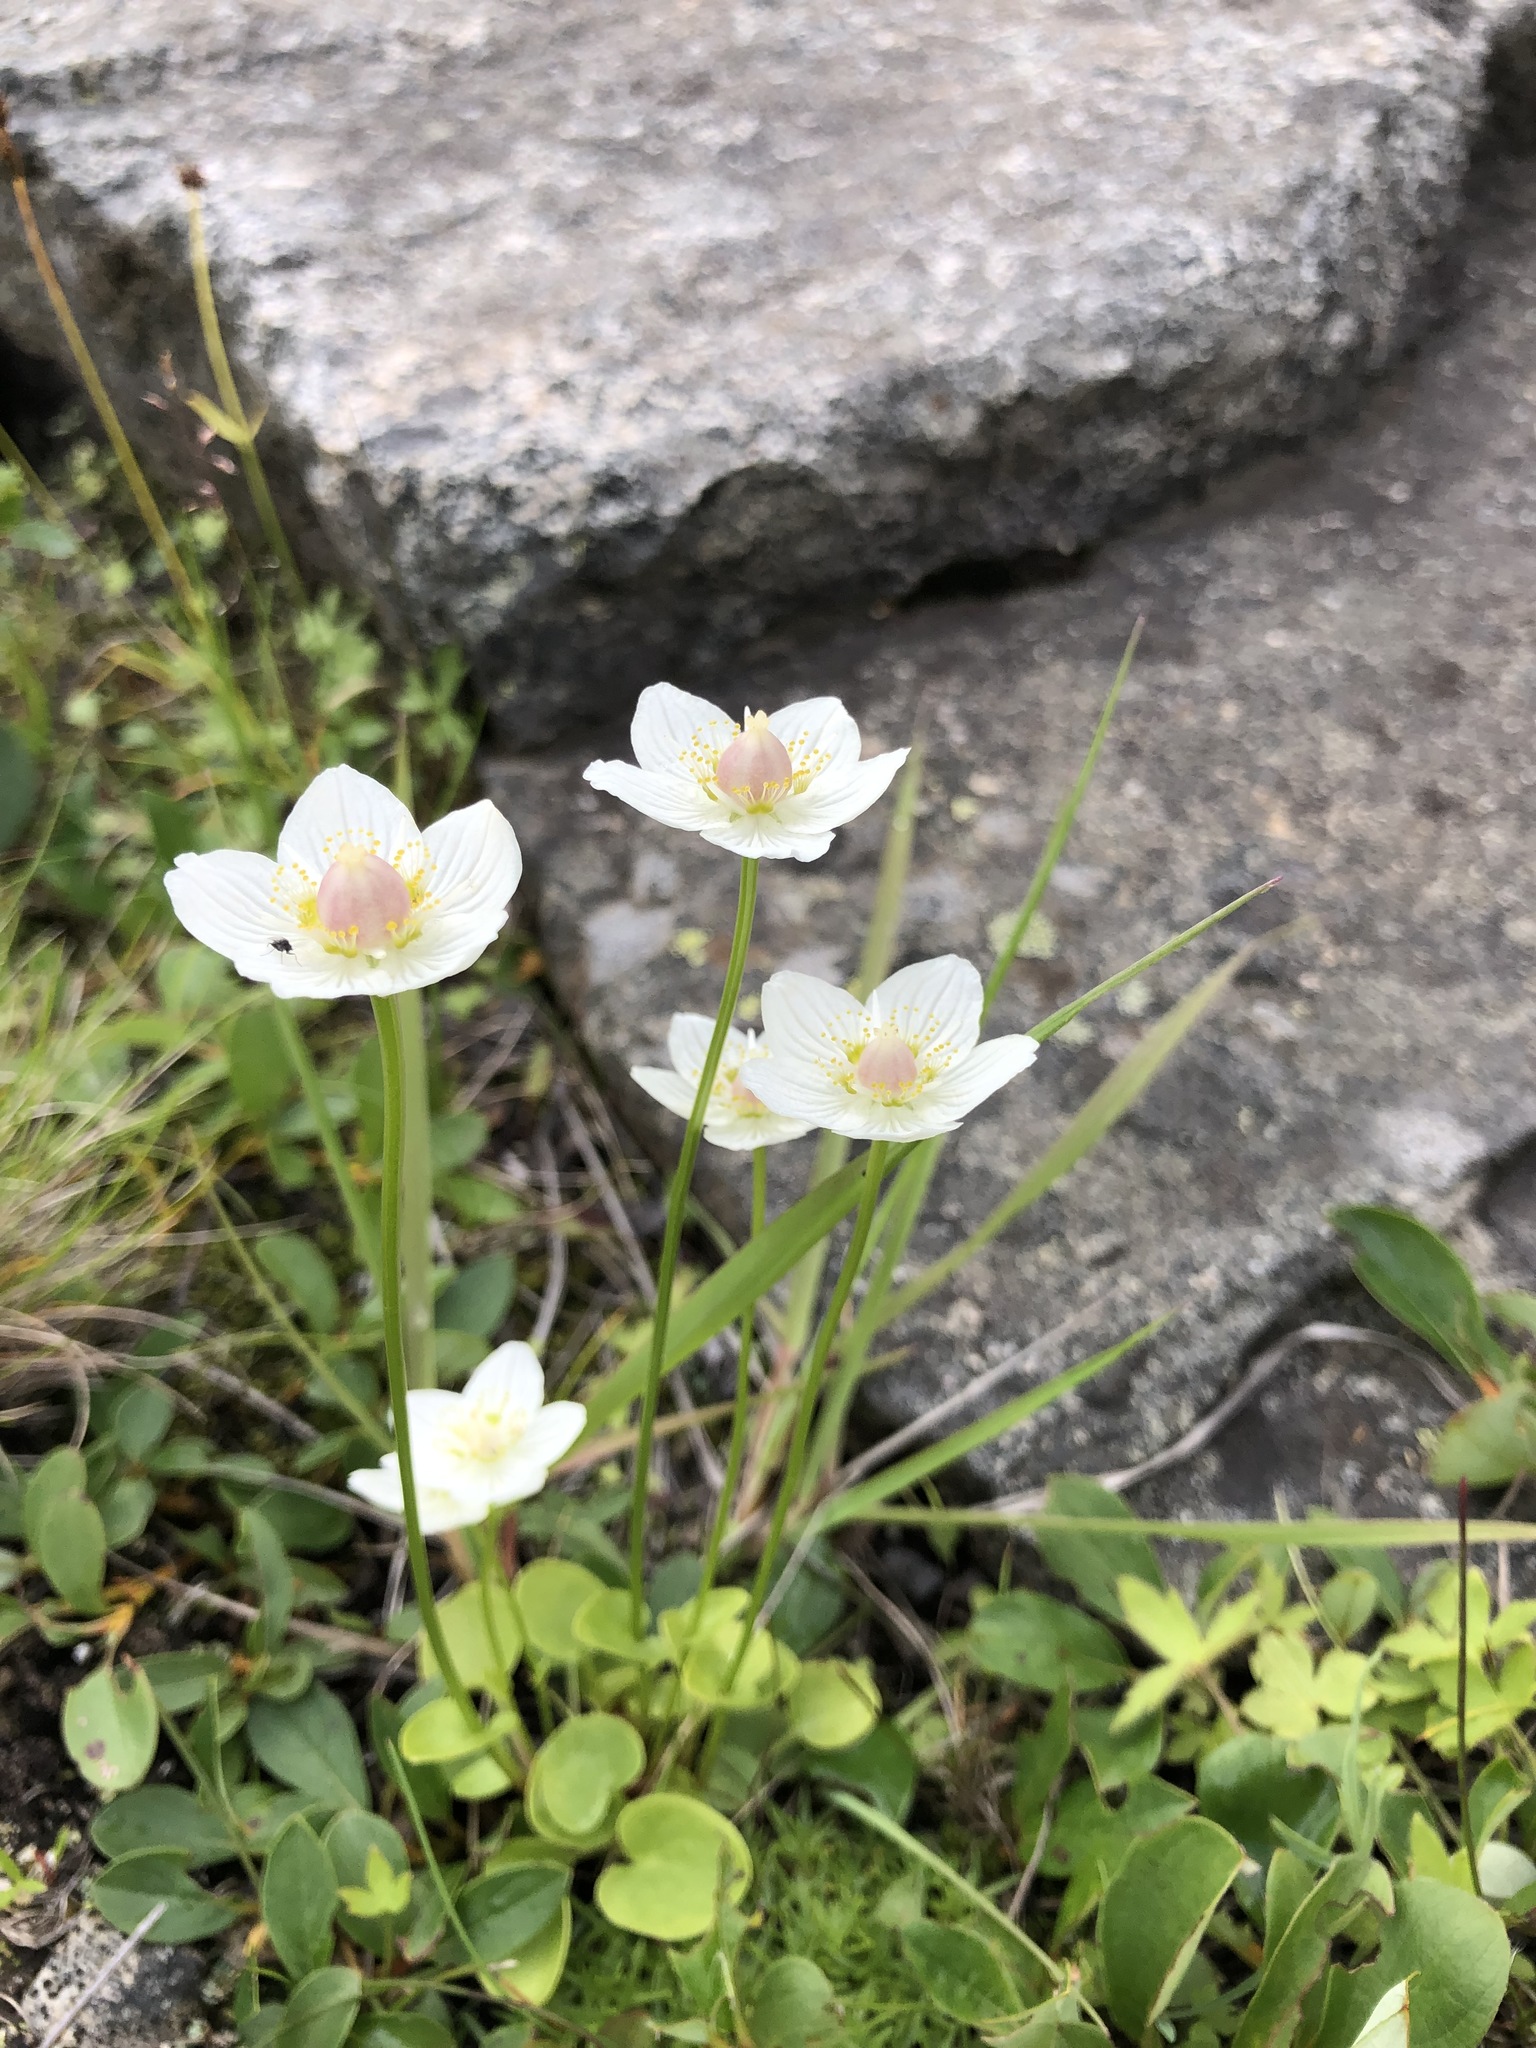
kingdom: Plantae
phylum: Tracheophyta
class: Magnoliopsida
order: Celastrales
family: Parnassiaceae
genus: Parnassia
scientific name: Parnassia palustris
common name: Grass-of-parnassus
